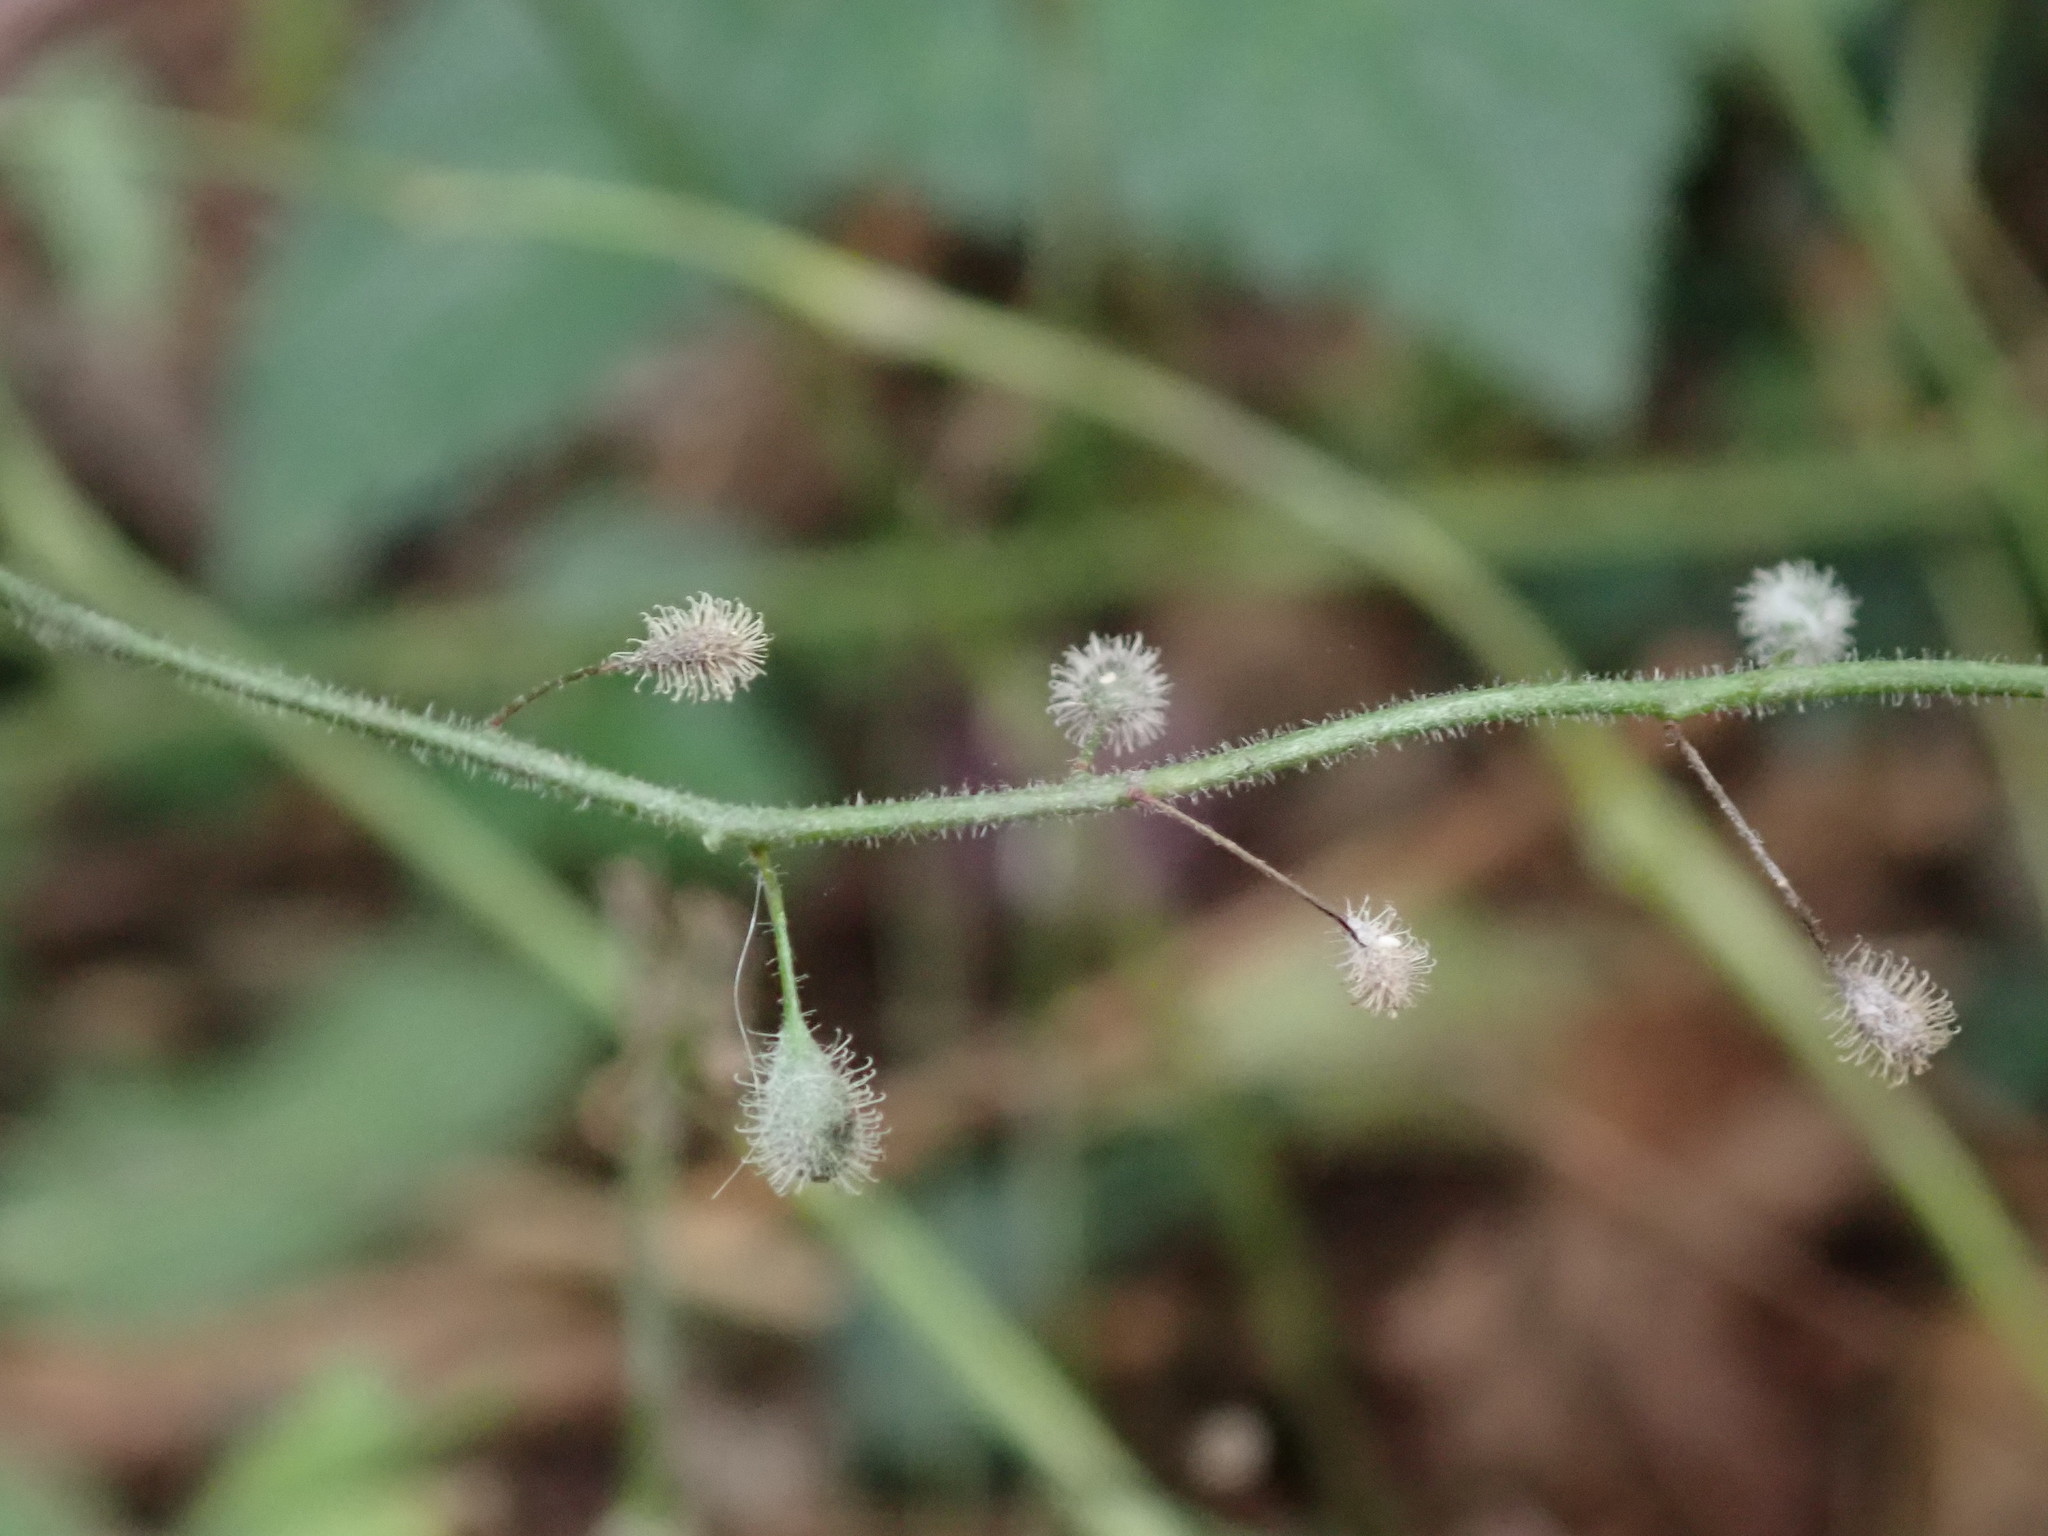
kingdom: Plantae
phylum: Tracheophyta
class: Magnoliopsida
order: Myrtales
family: Onagraceae
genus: Circaea
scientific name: Circaea lutetiana
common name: Enchanter's-nightshade
